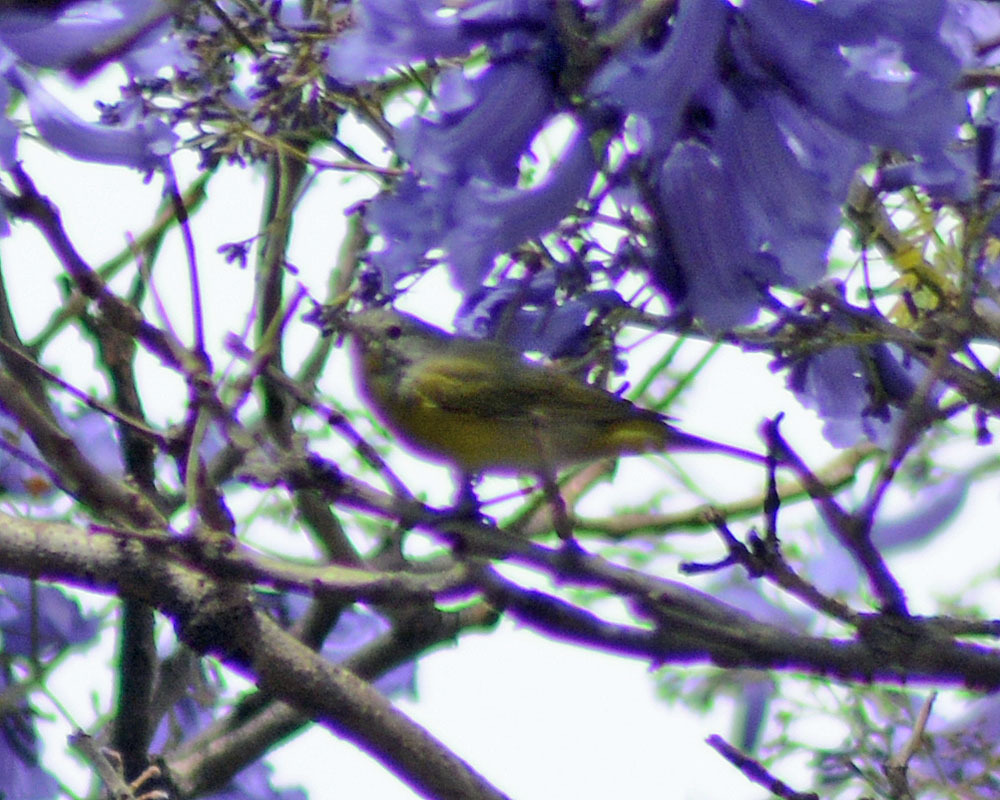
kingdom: Animalia
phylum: Chordata
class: Aves
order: Passeriformes
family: Parulidae
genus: Leiothlypis
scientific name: Leiothlypis ruficapilla
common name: Nashville warbler
